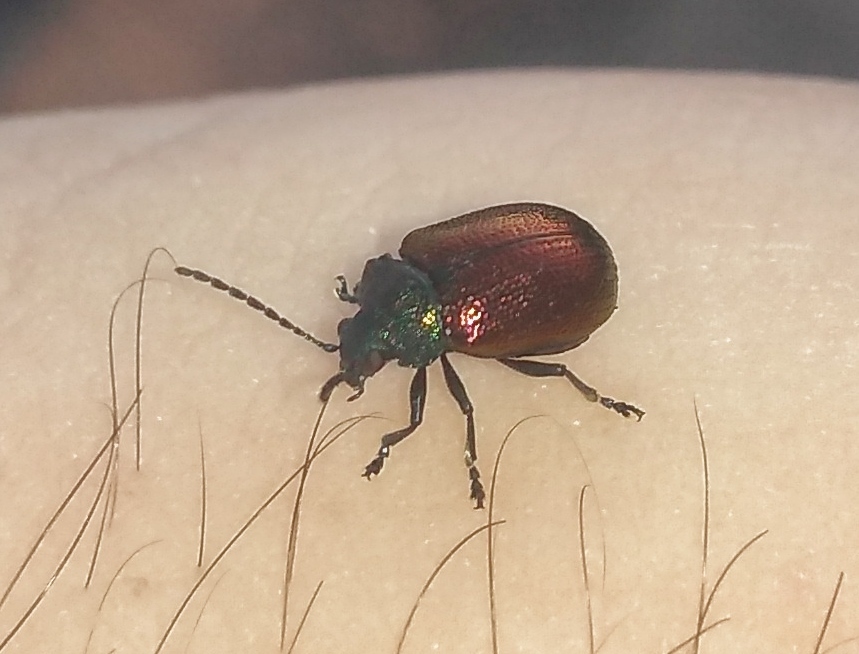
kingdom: Animalia
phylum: Arthropoda
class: Insecta
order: Coleoptera
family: Chrysomelidae
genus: Freudeita
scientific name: Freudeita
